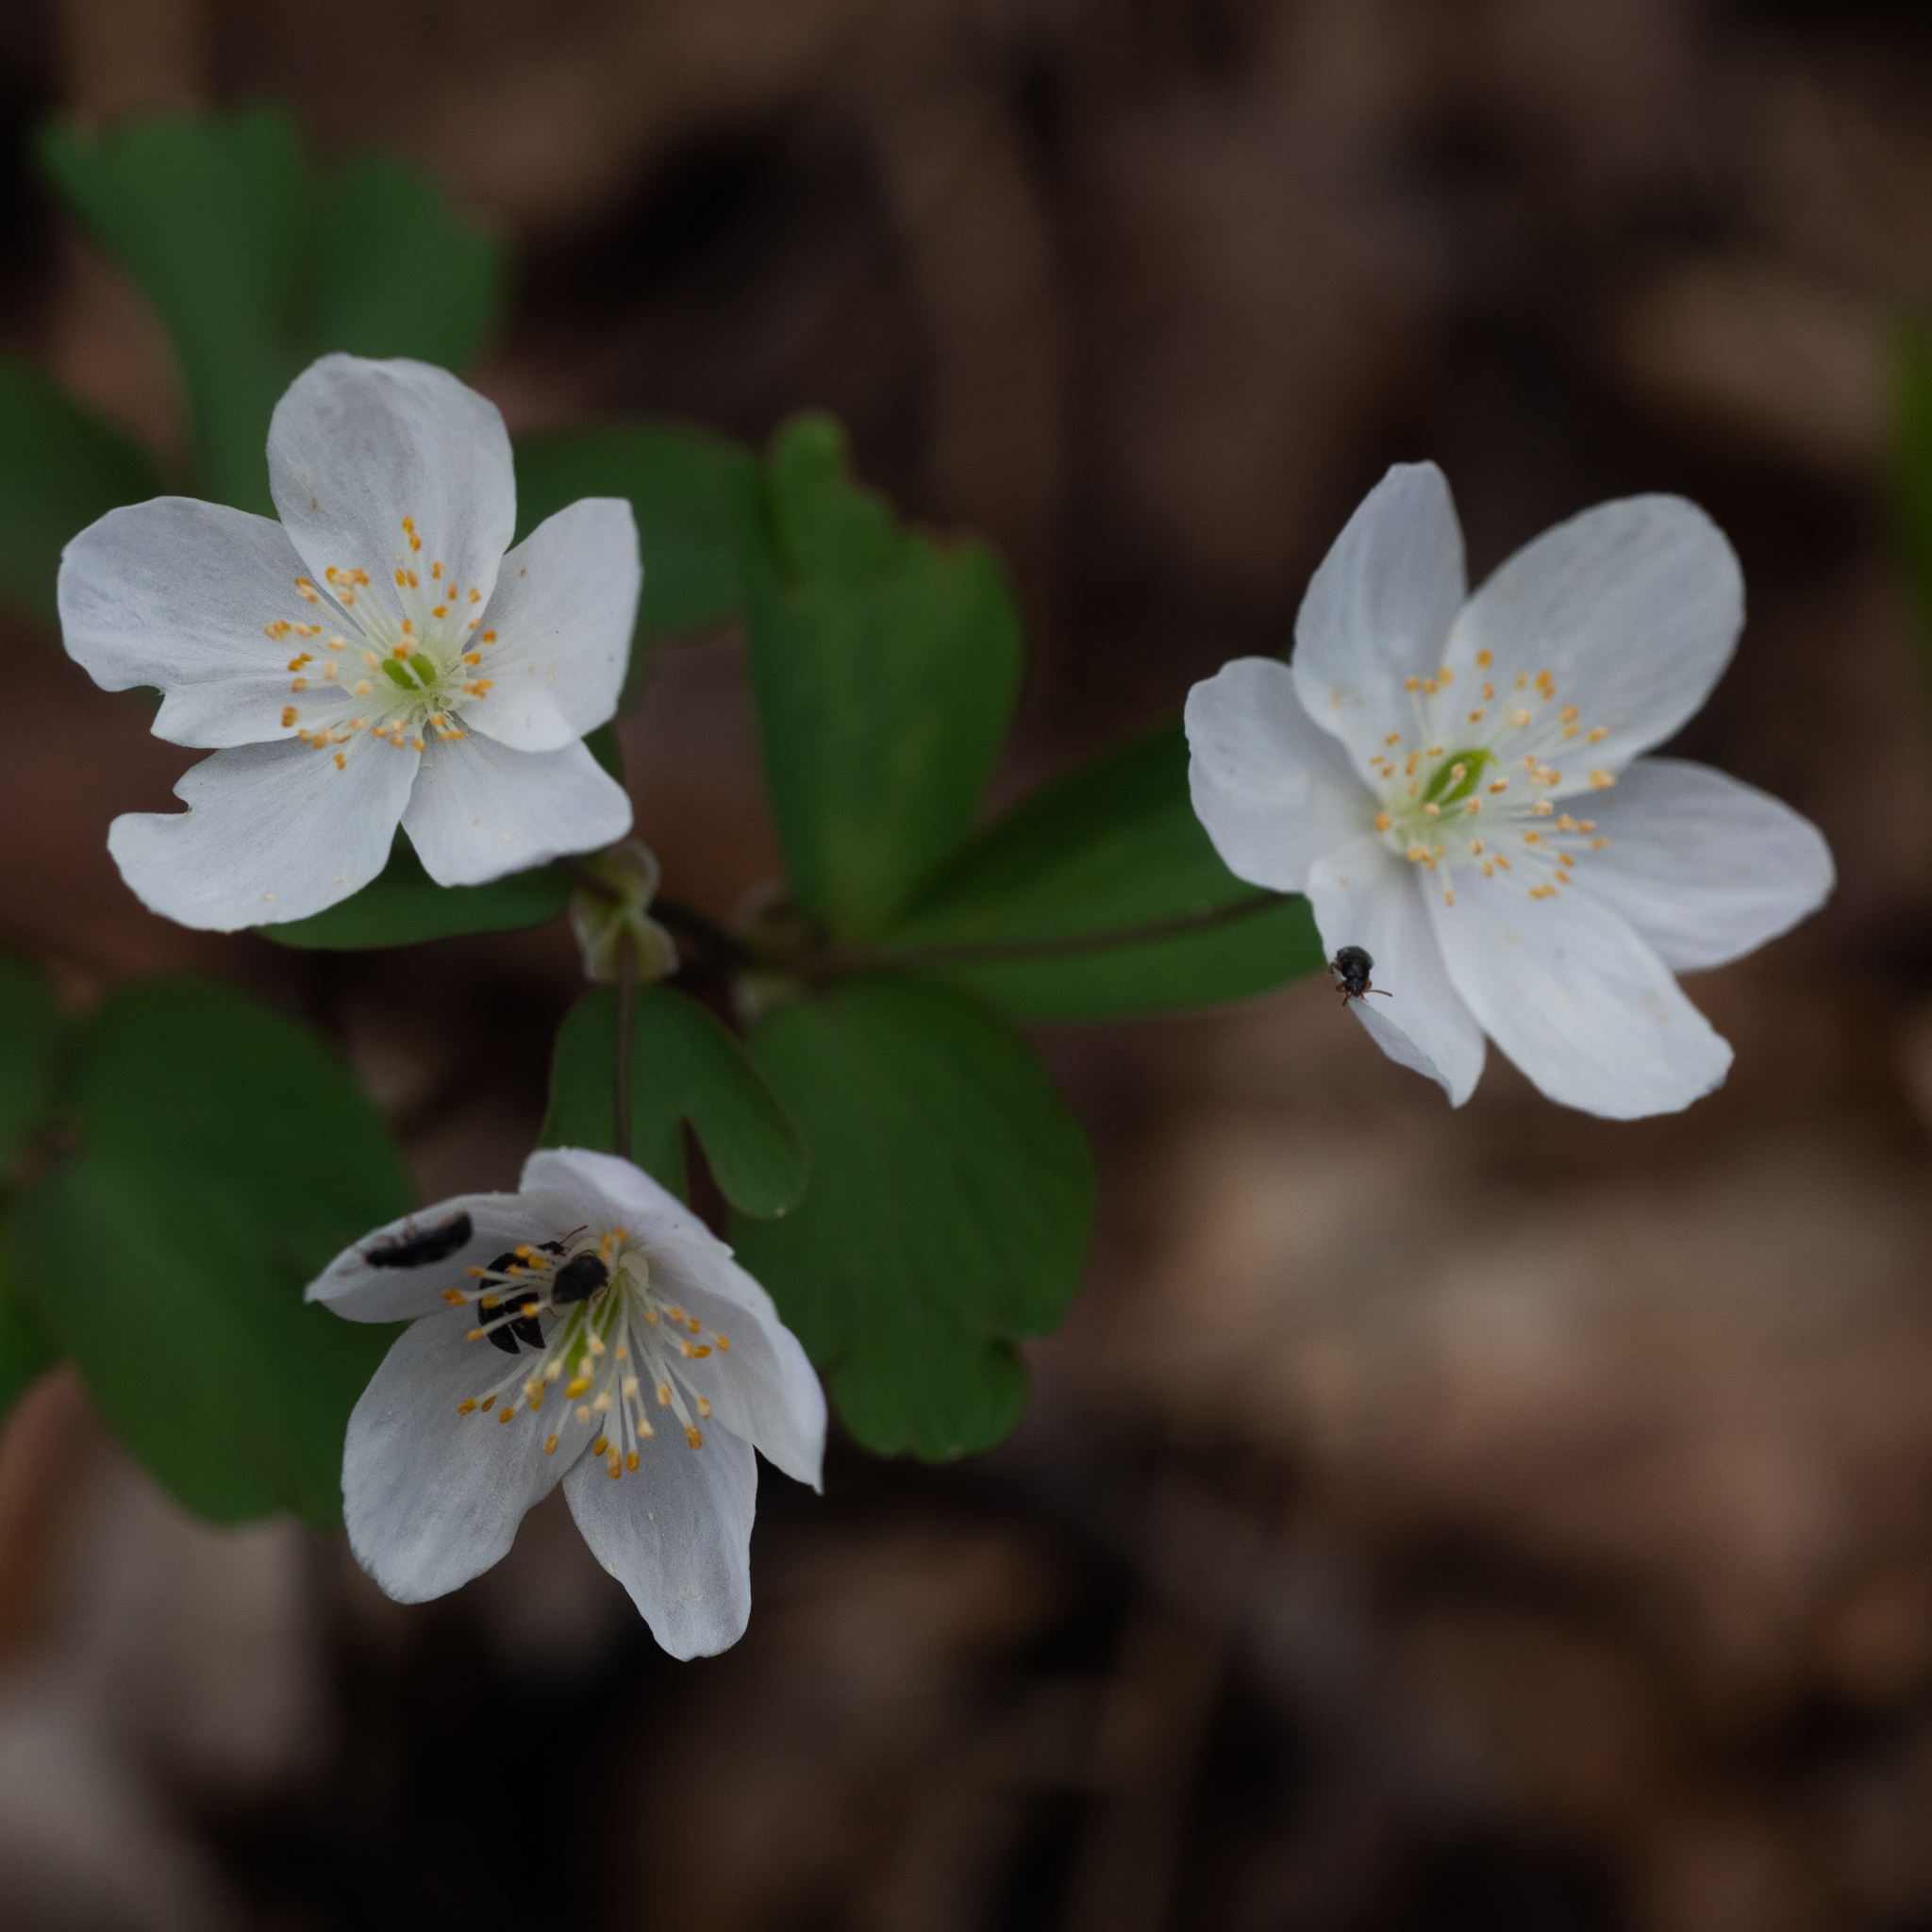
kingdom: Plantae
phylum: Tracheophyta
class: Magnoliopsida
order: Ranunculales
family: Ranunculaceae
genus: Isopyrum
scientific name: Isopyrum thalictroides
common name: Isopyrum
